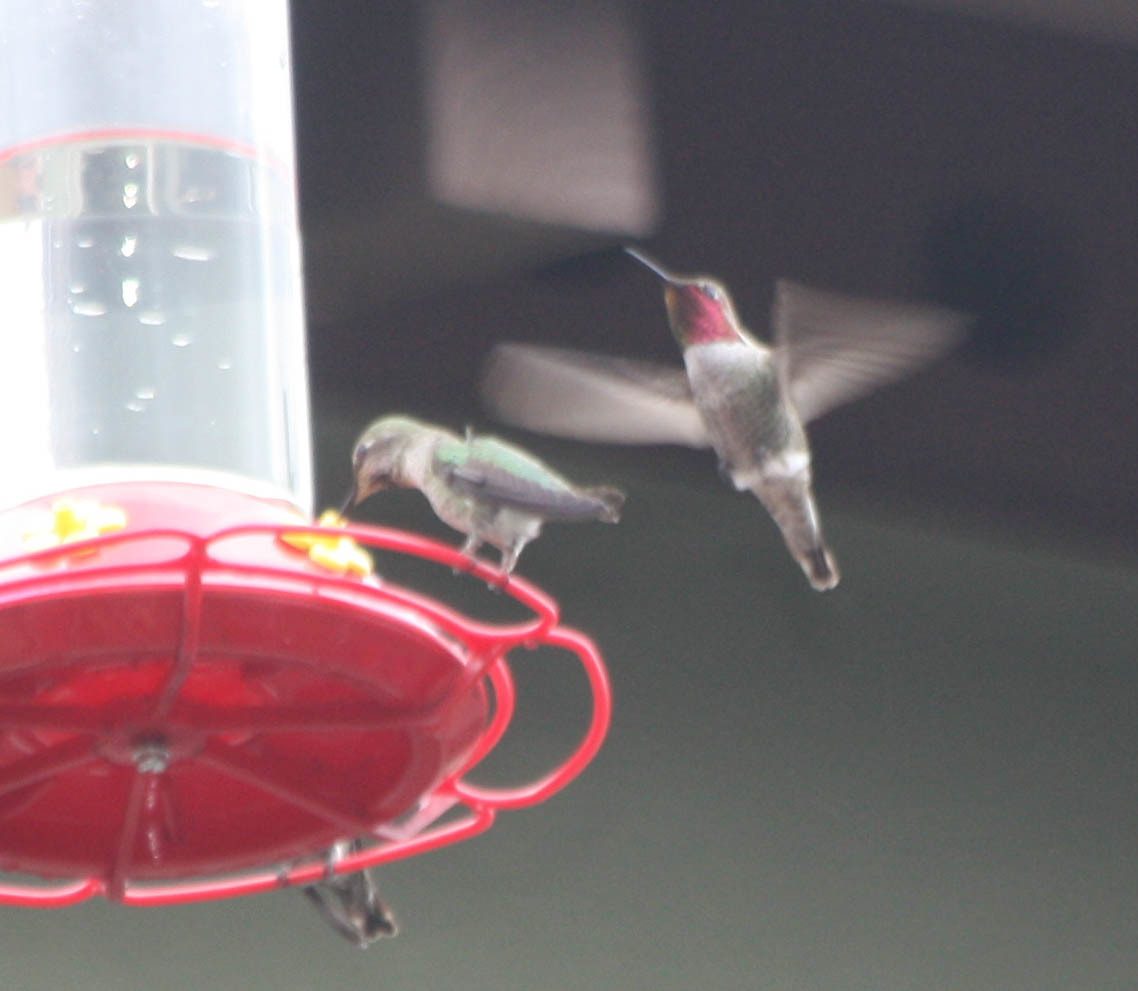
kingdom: Animalia
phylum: Chordata
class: Aves
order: Apodiformes
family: Trochilidae
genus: Calypte
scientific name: Calypte anna
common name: Anna's hummingbird
